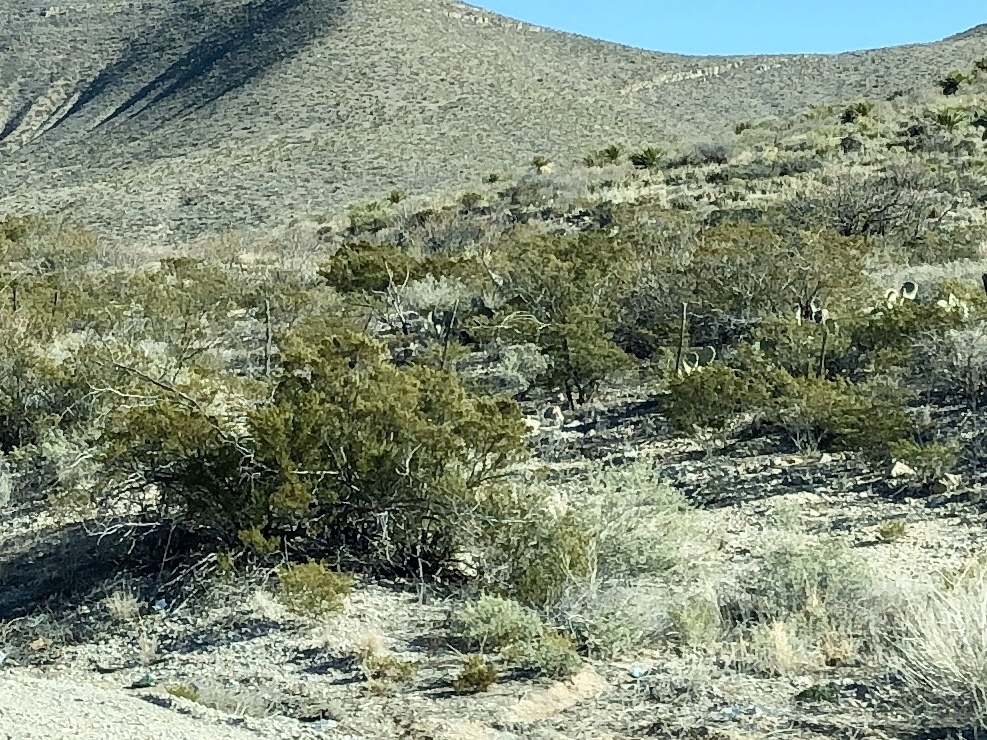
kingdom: Plantae
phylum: Tracheophyta
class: Magnoliopsida
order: Zygophyllales
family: Zygophyllaceae
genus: Larrea
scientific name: Larrea tridentata
